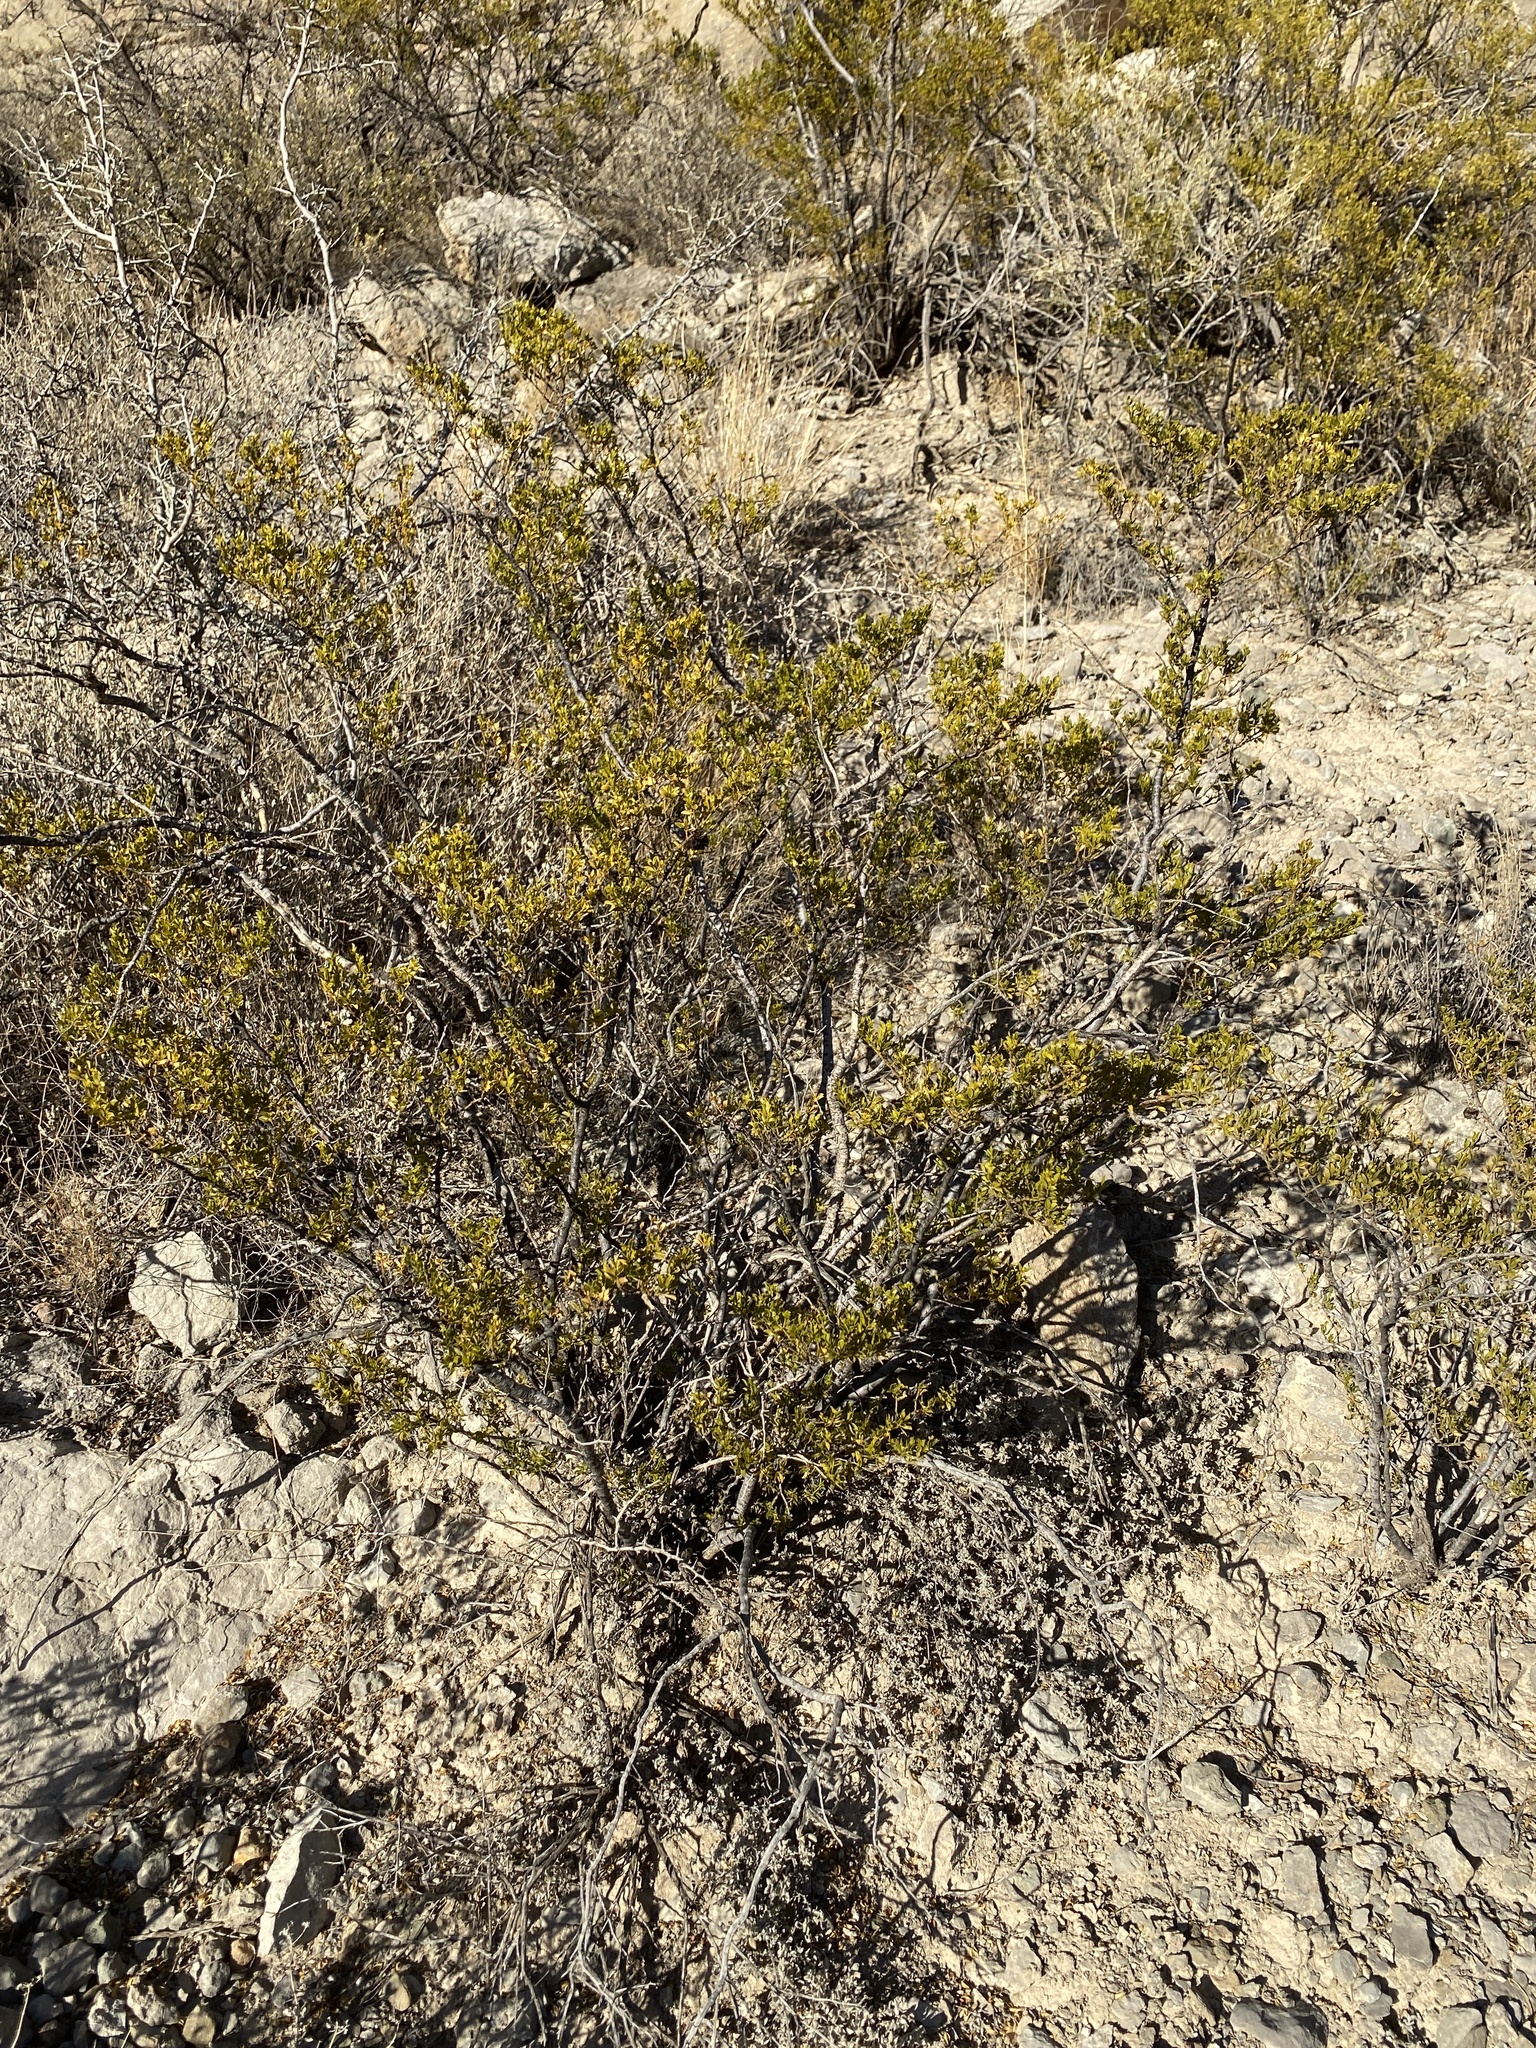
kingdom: Plantae
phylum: Tracheophyta
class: Magnoliopsida
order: Zygophyllales
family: Zygophyllaceae
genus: Larrea
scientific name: Larrea tridentata
